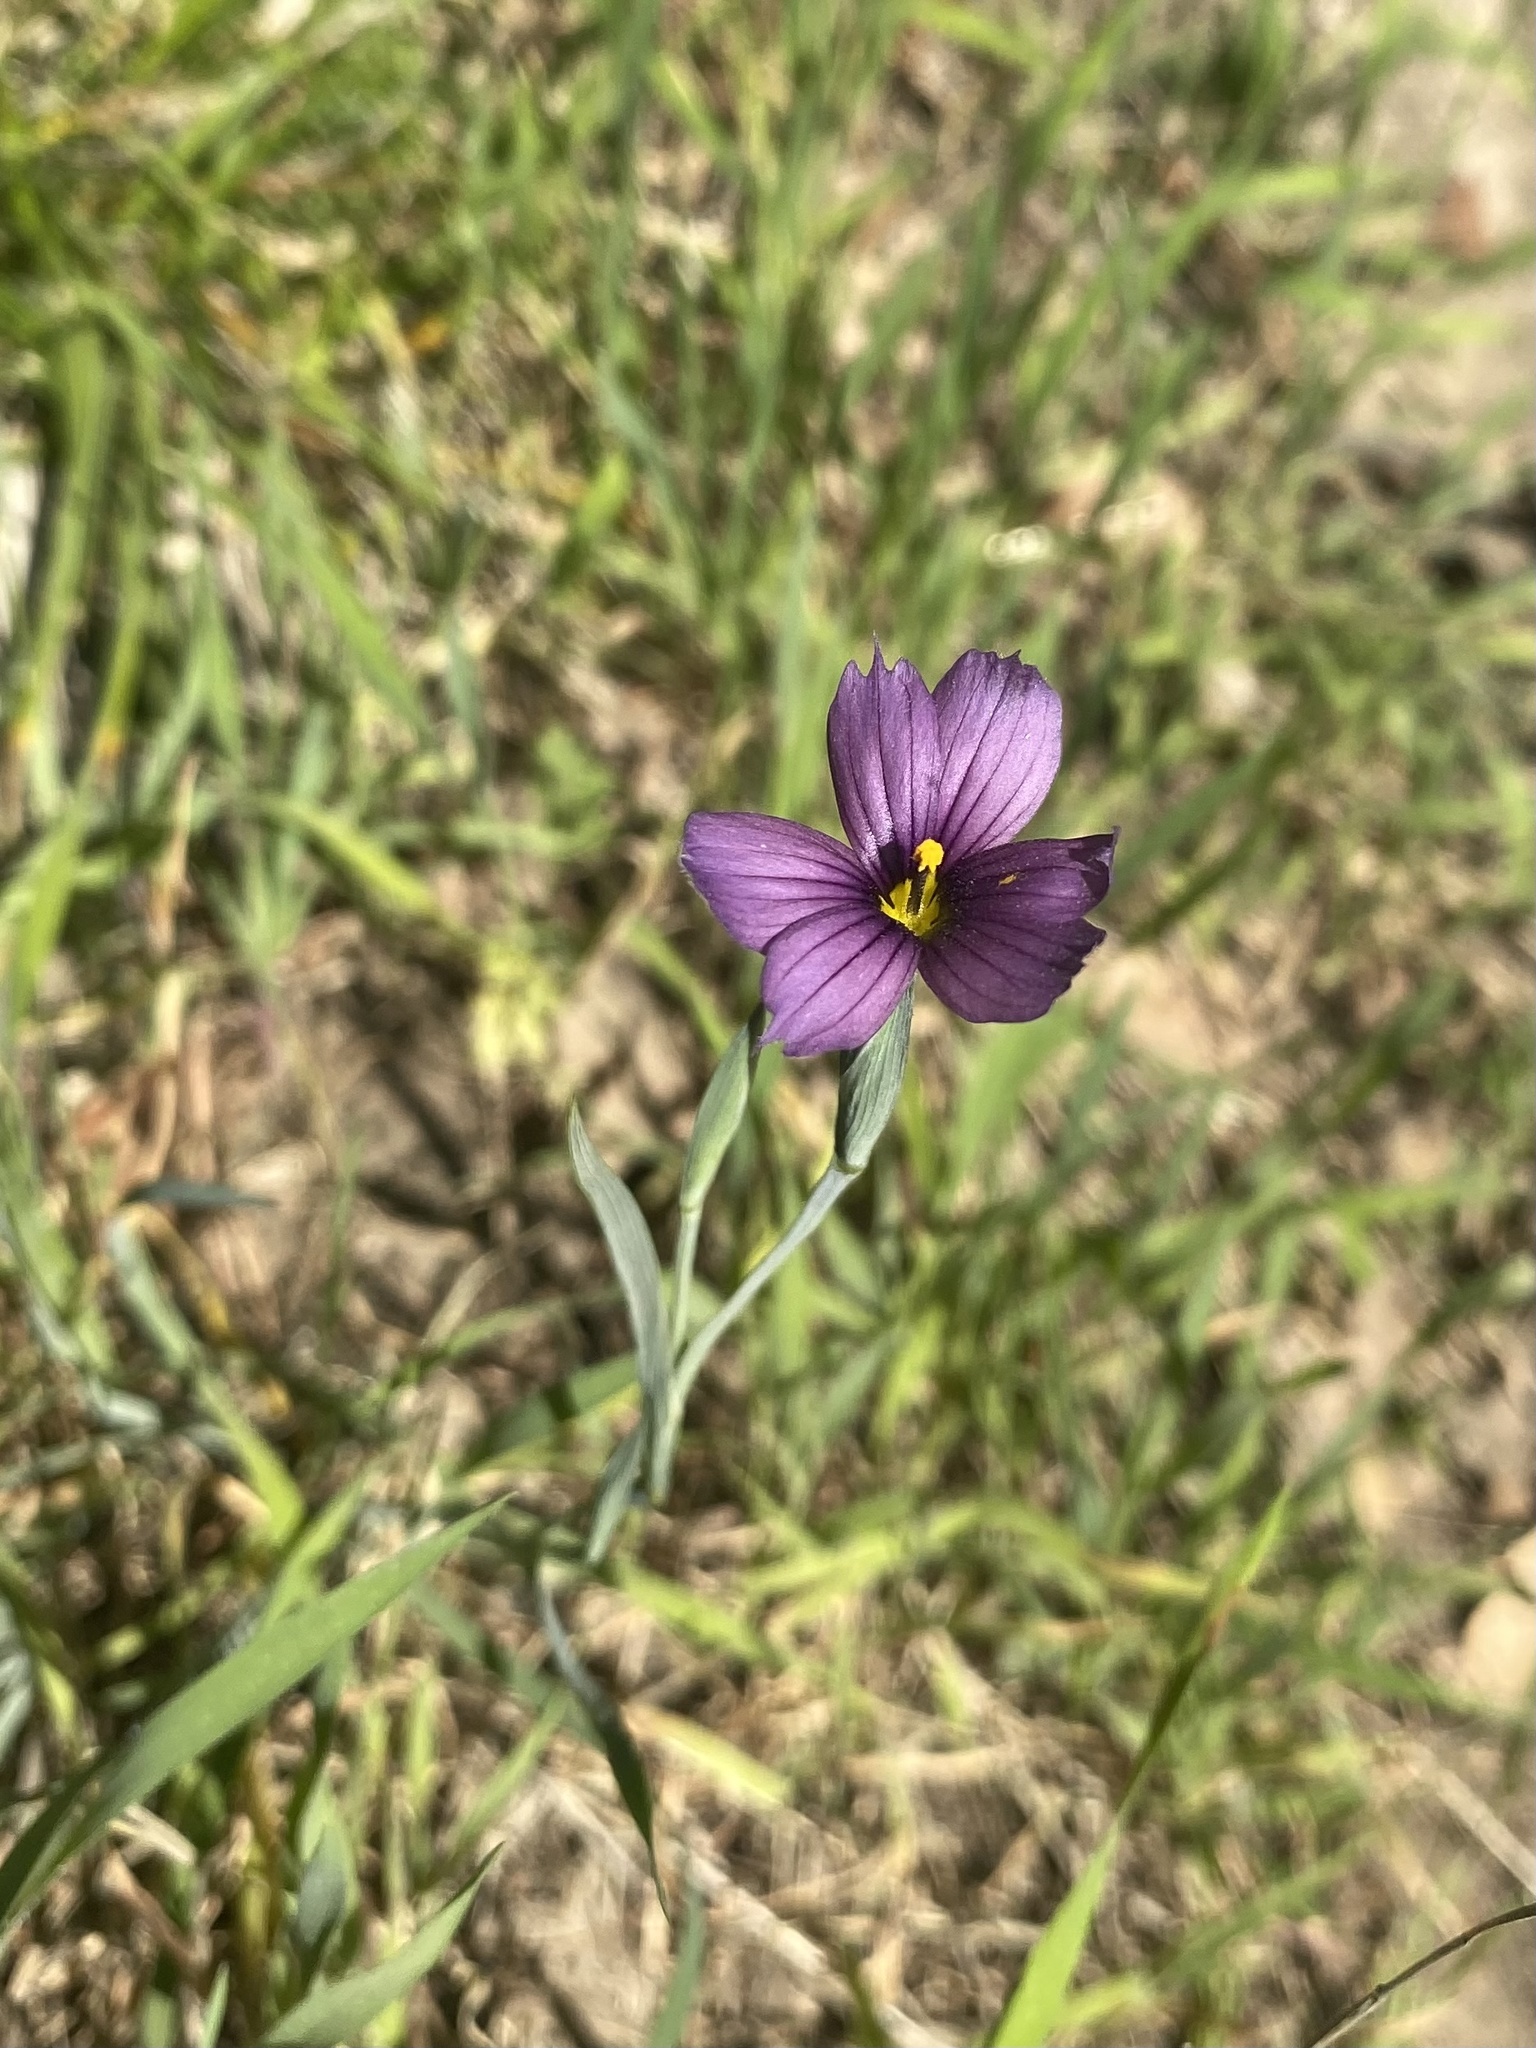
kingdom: Plantae
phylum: Tracheophyta
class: Liliopsida
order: Asparagales
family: Iridaceae
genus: Sisyrinchium
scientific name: Sisyrinchium bellum
